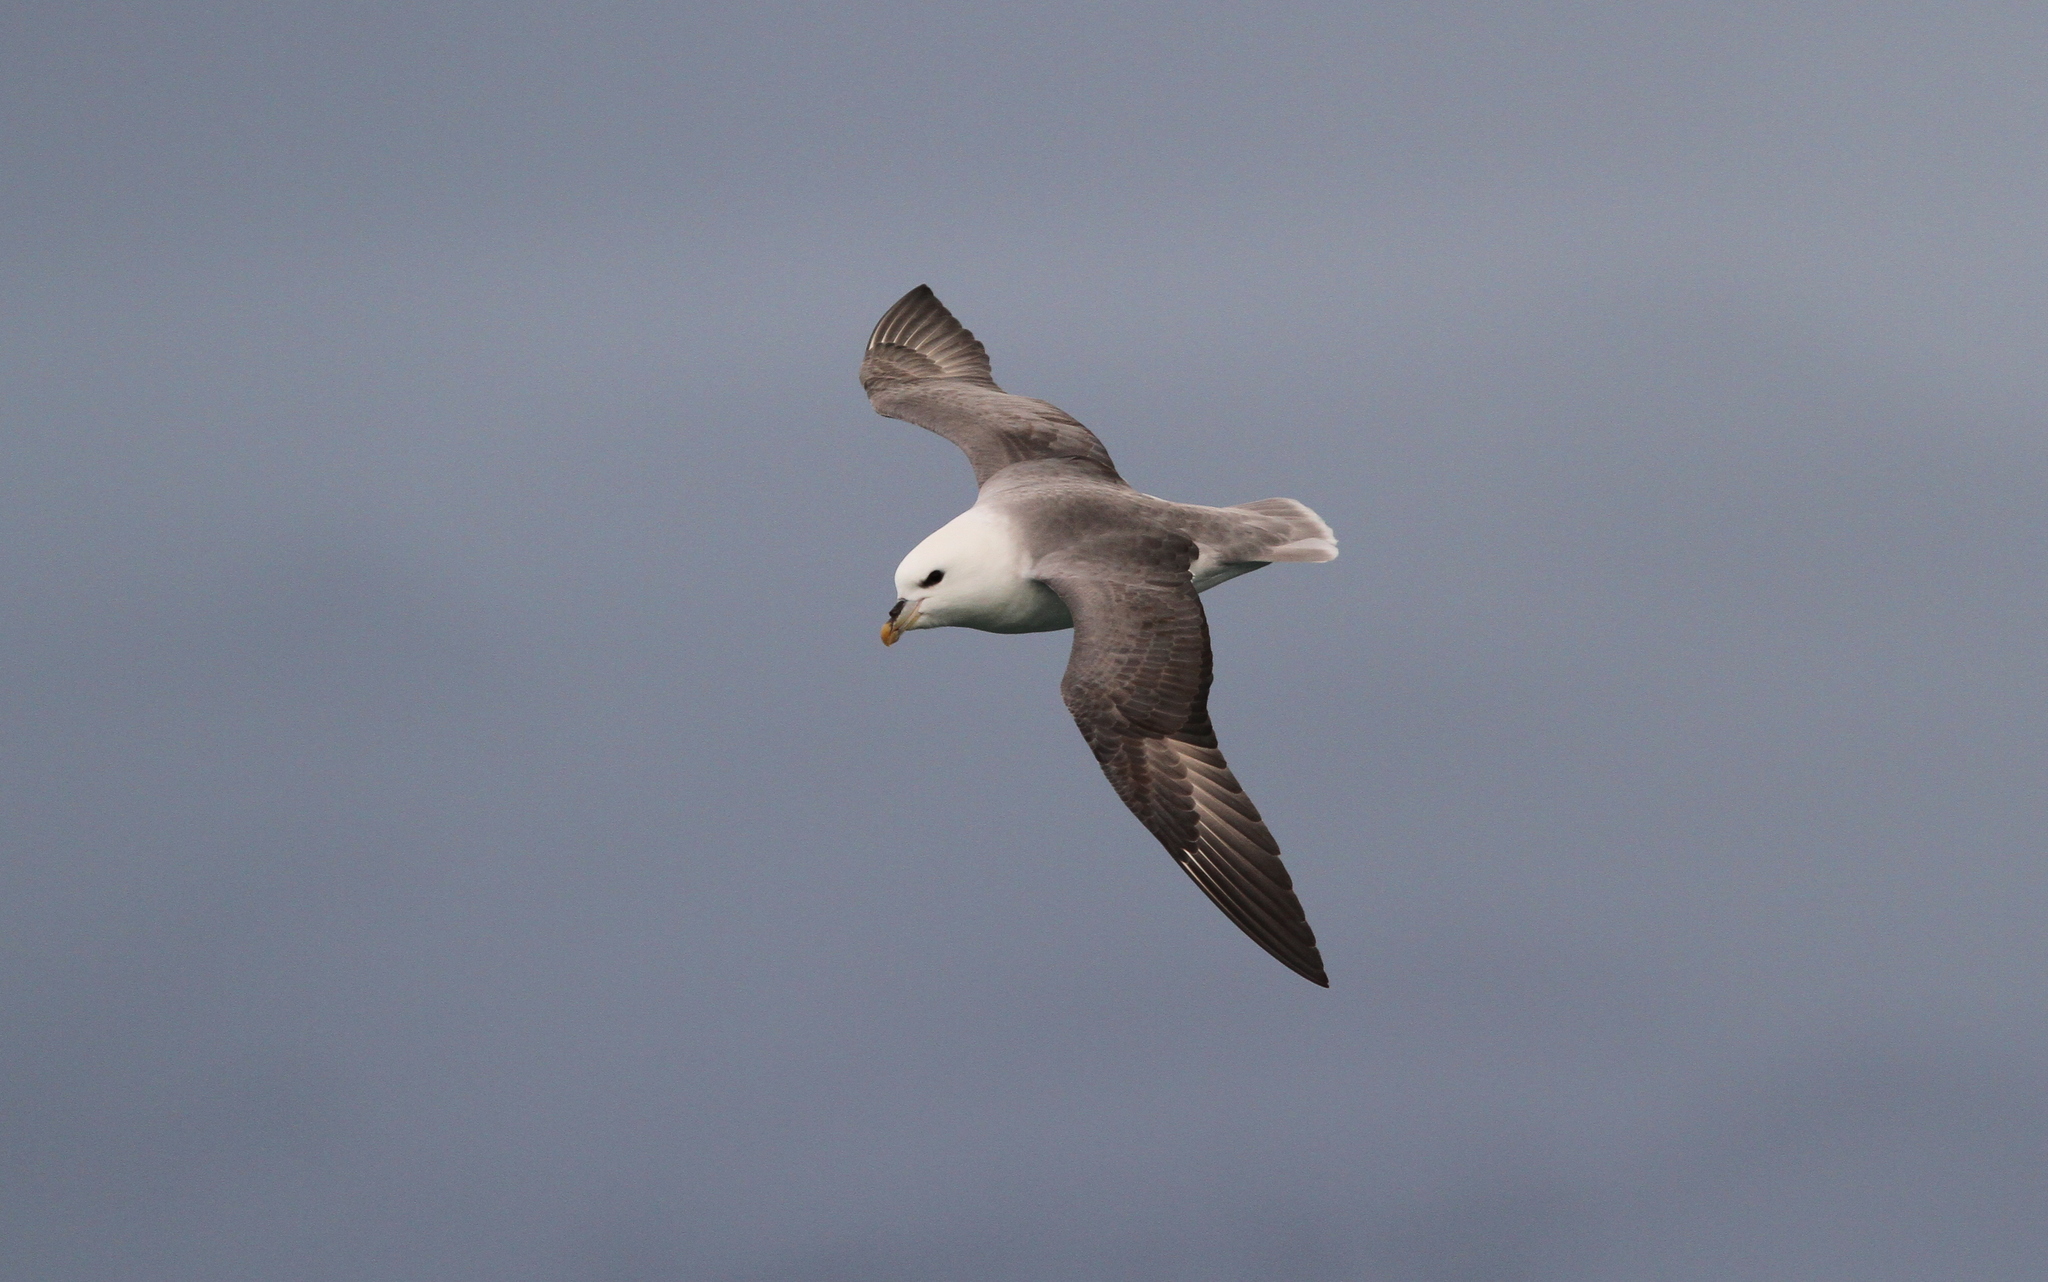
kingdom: Animalia
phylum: Chordata
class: Aves
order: Procellariiformes
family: Procellariidae
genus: Fulmarus
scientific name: Fulmarus glacialis
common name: Northern fulmar
